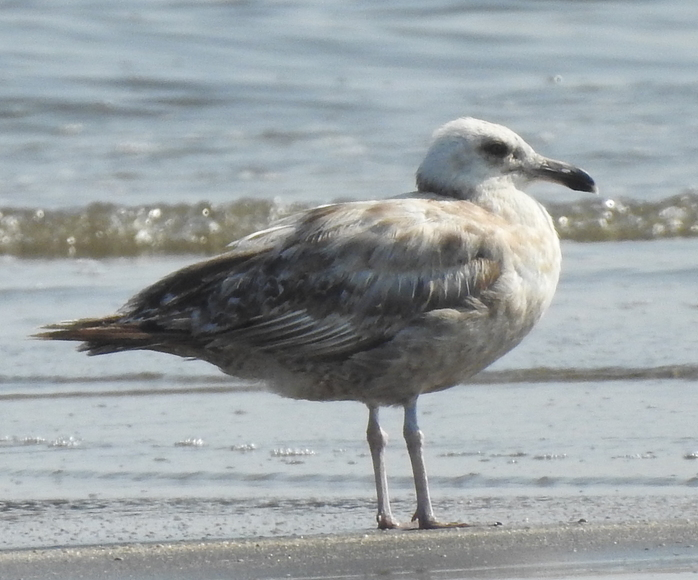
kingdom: Animalia
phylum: Chordata
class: Aves
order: Charadriiformes
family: Laridae
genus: Larus
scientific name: Larus argentatus
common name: Herring gull
